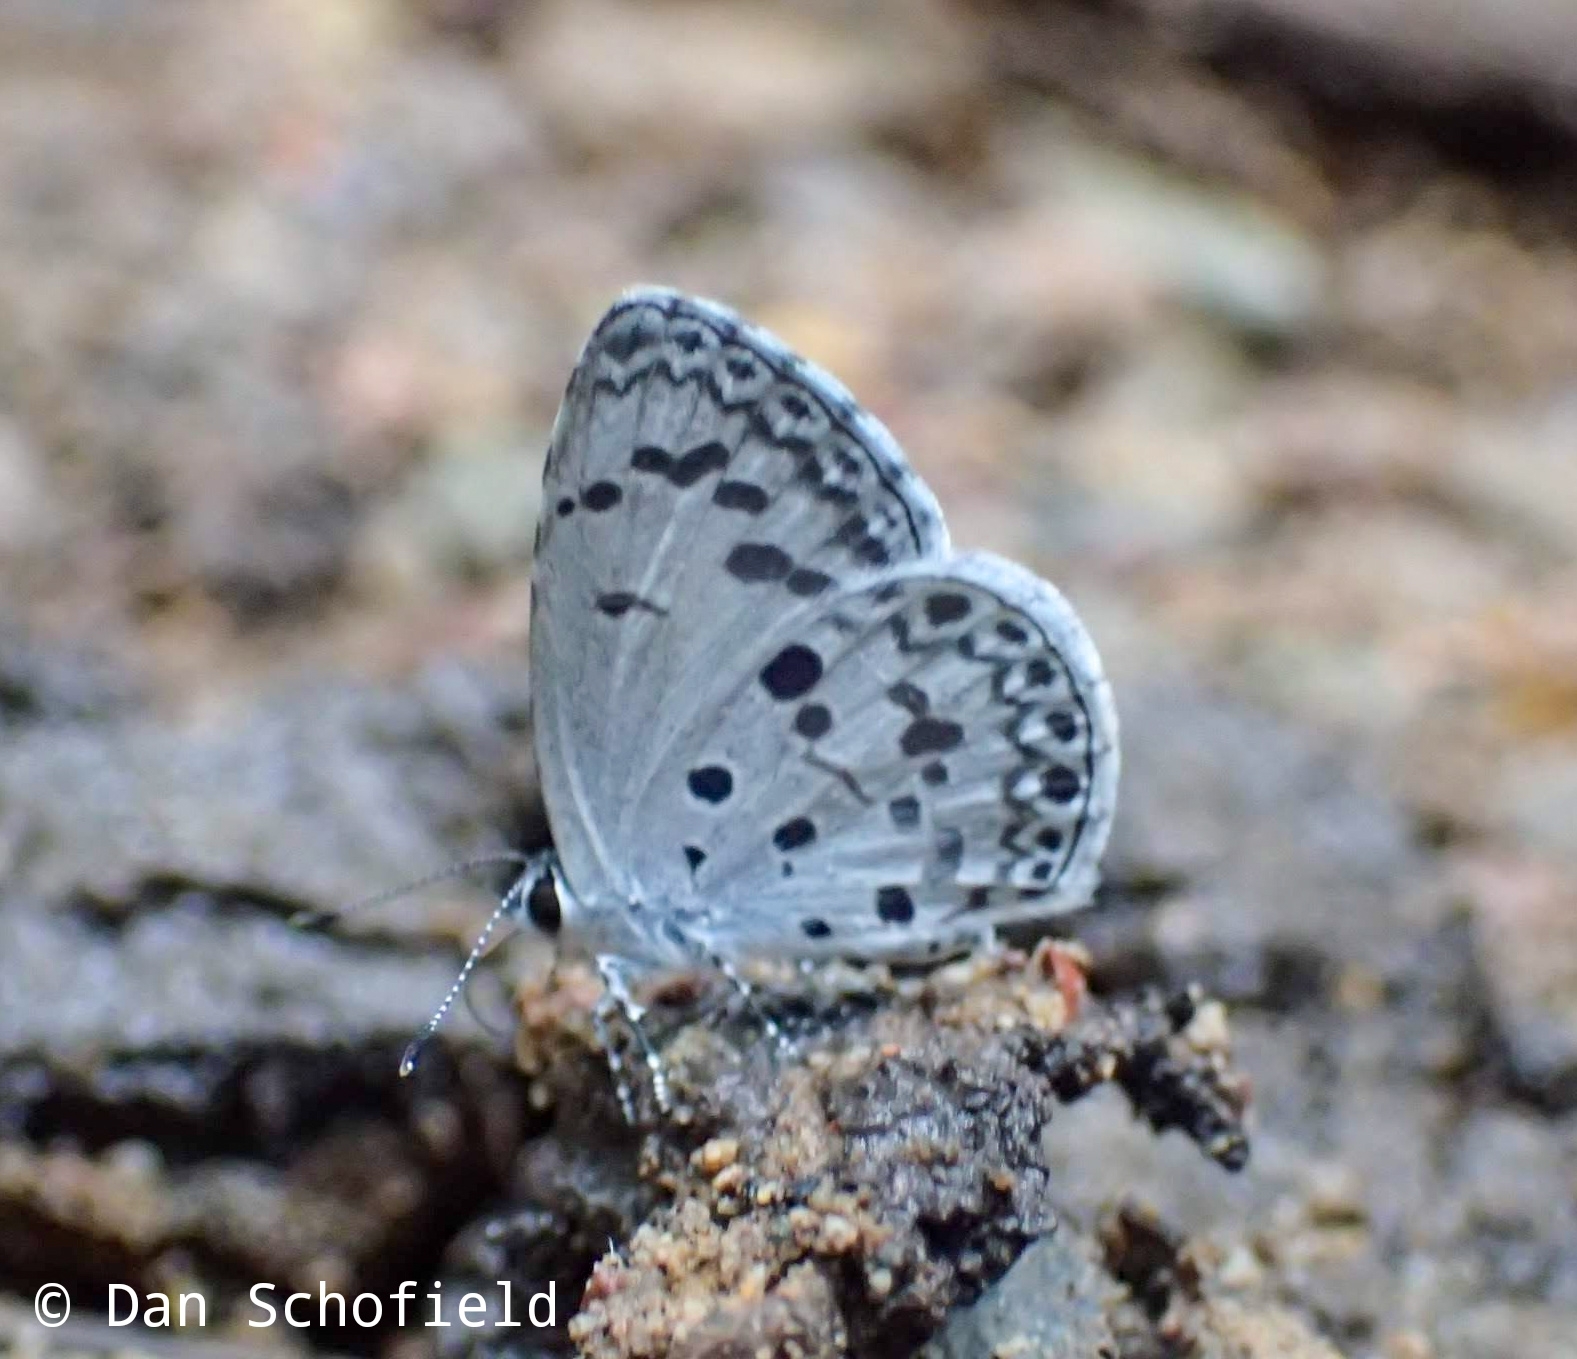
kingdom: Animalia
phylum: Arthropoda
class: Insecta
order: Lepidoptera
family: Lycaenidae
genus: Acytolepis
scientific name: Acytolepis puspa
